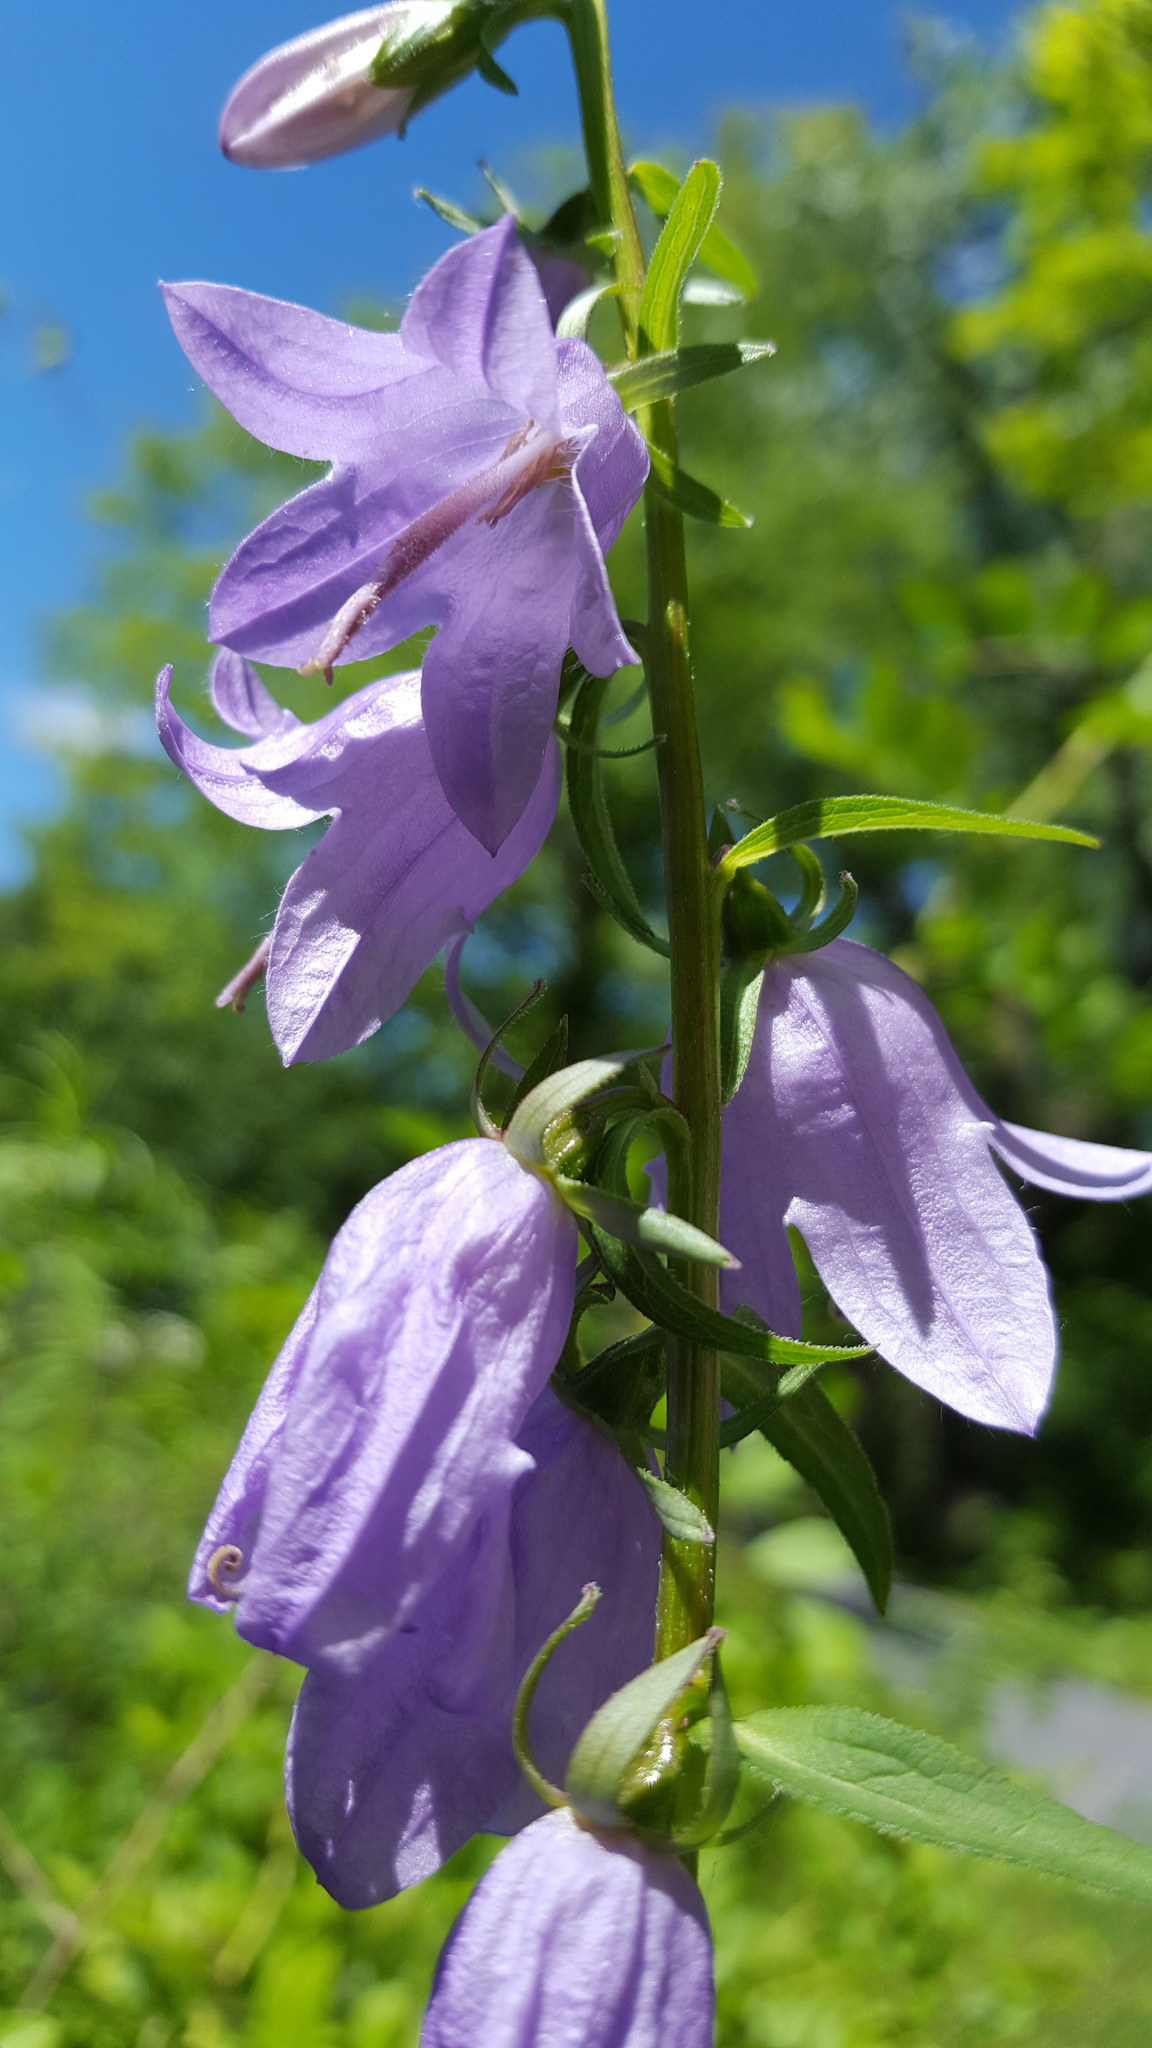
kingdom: Plantae
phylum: Tracheophyta
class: Magnoliopsida
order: Asterales
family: Campanulaceae
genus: Campanula
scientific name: Campanula rapunculoides
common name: Creeping bellflower
